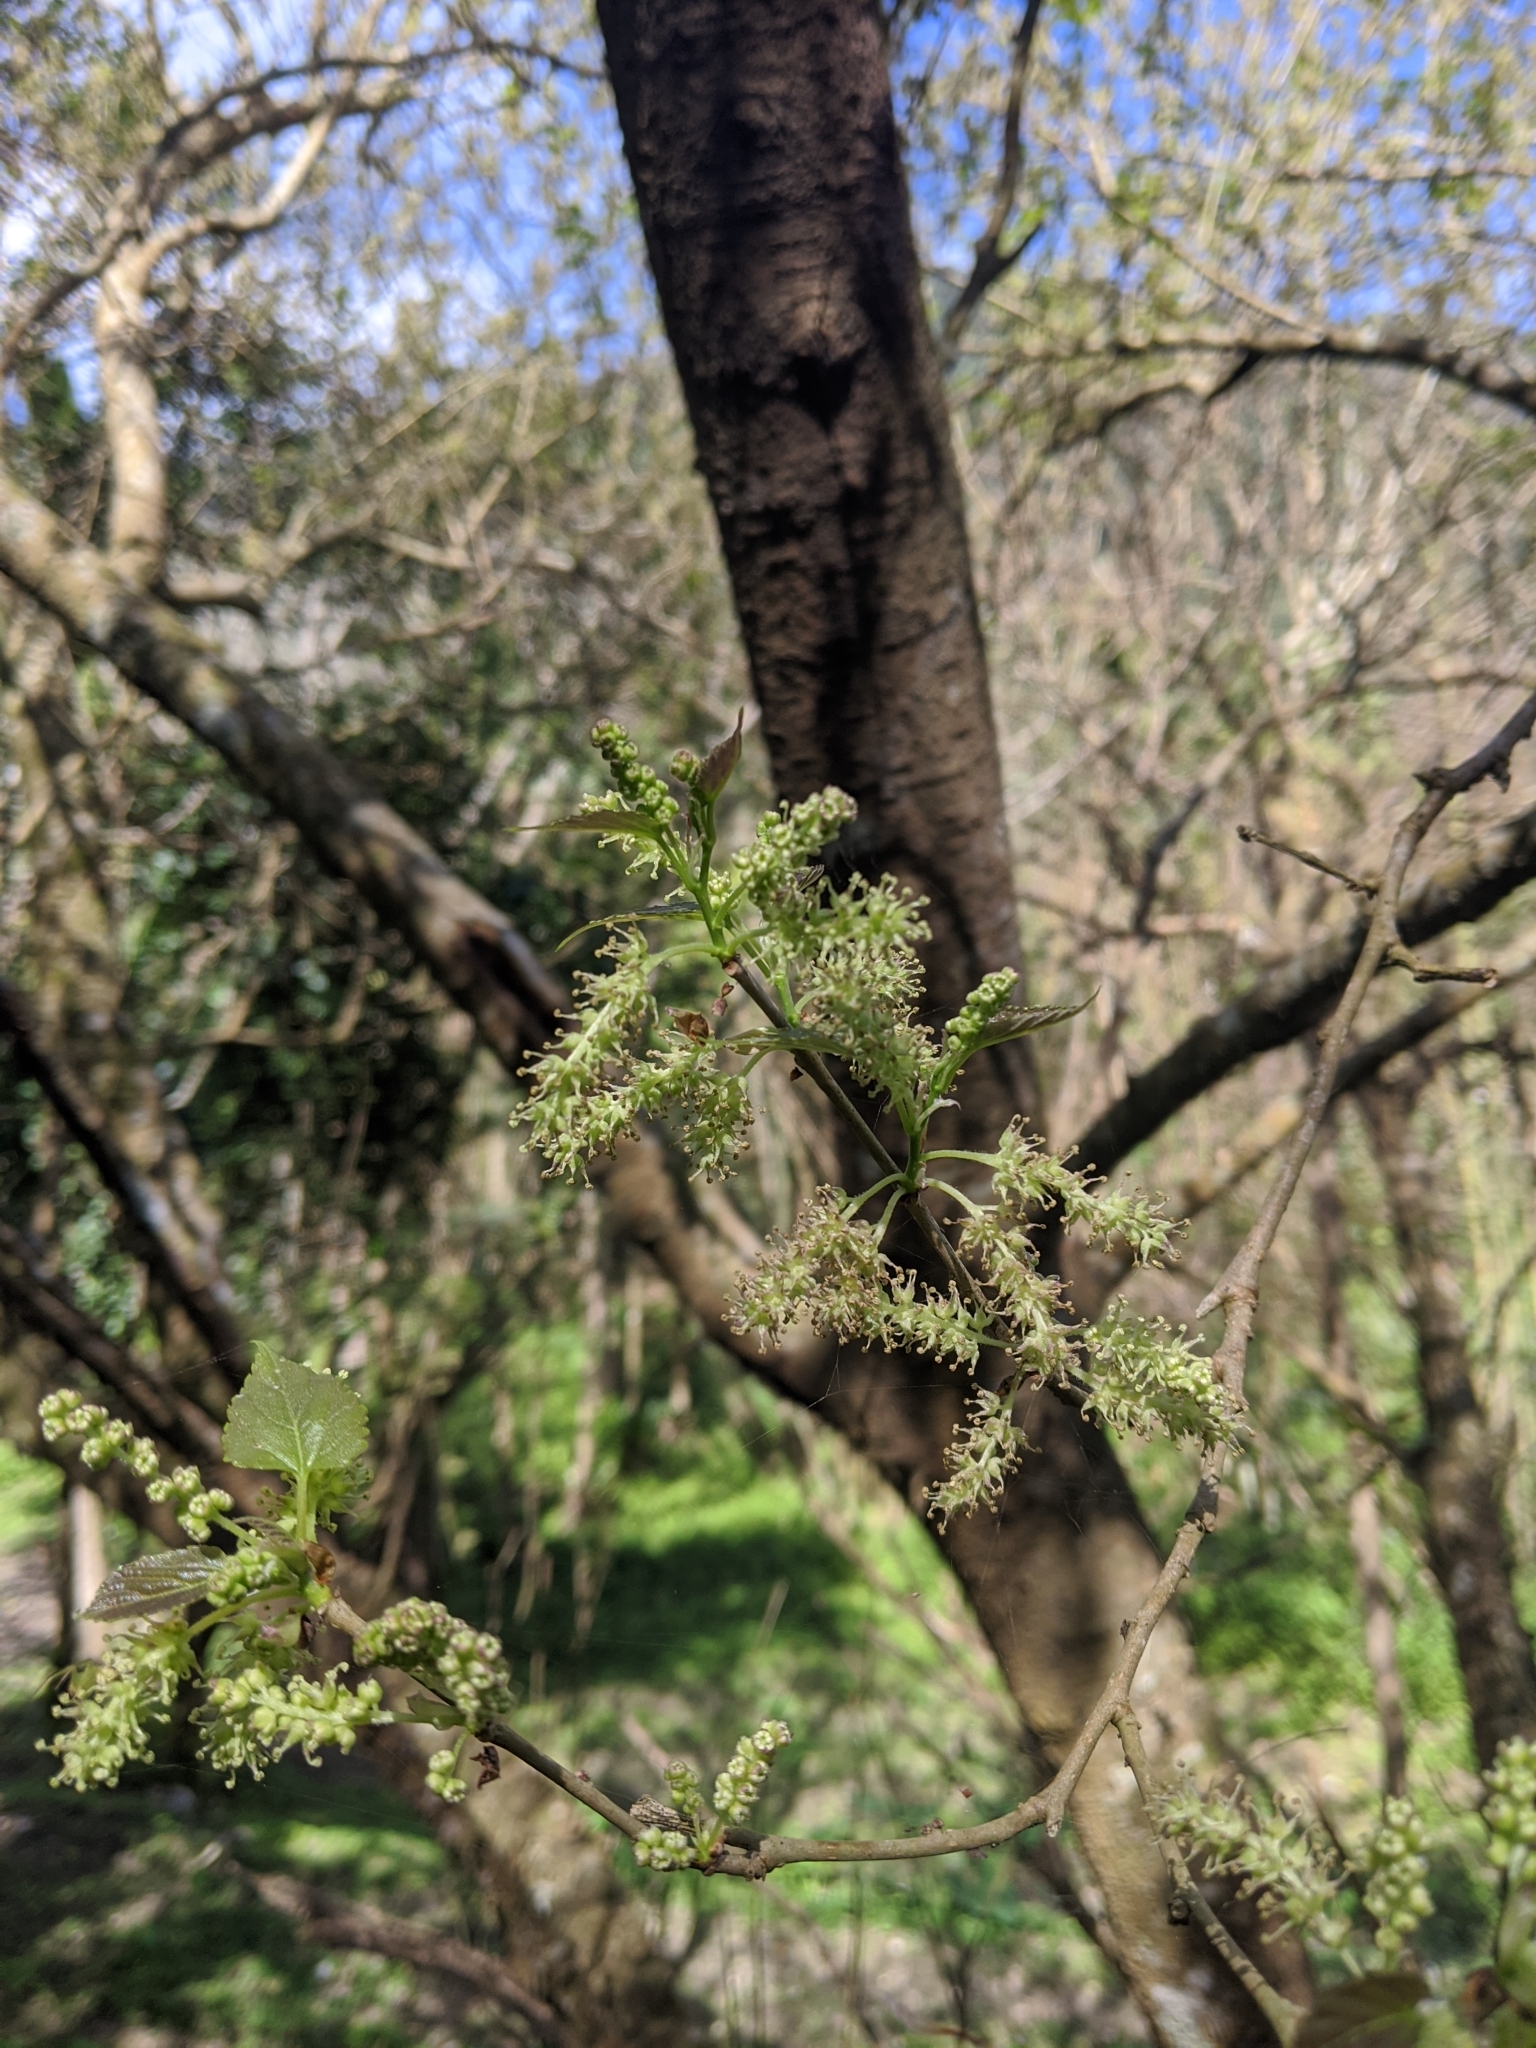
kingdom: Plantae
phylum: Tracheophyta
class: Magnoliopsida
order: Rosales
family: Moraceae
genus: Morus
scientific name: Morus indica
